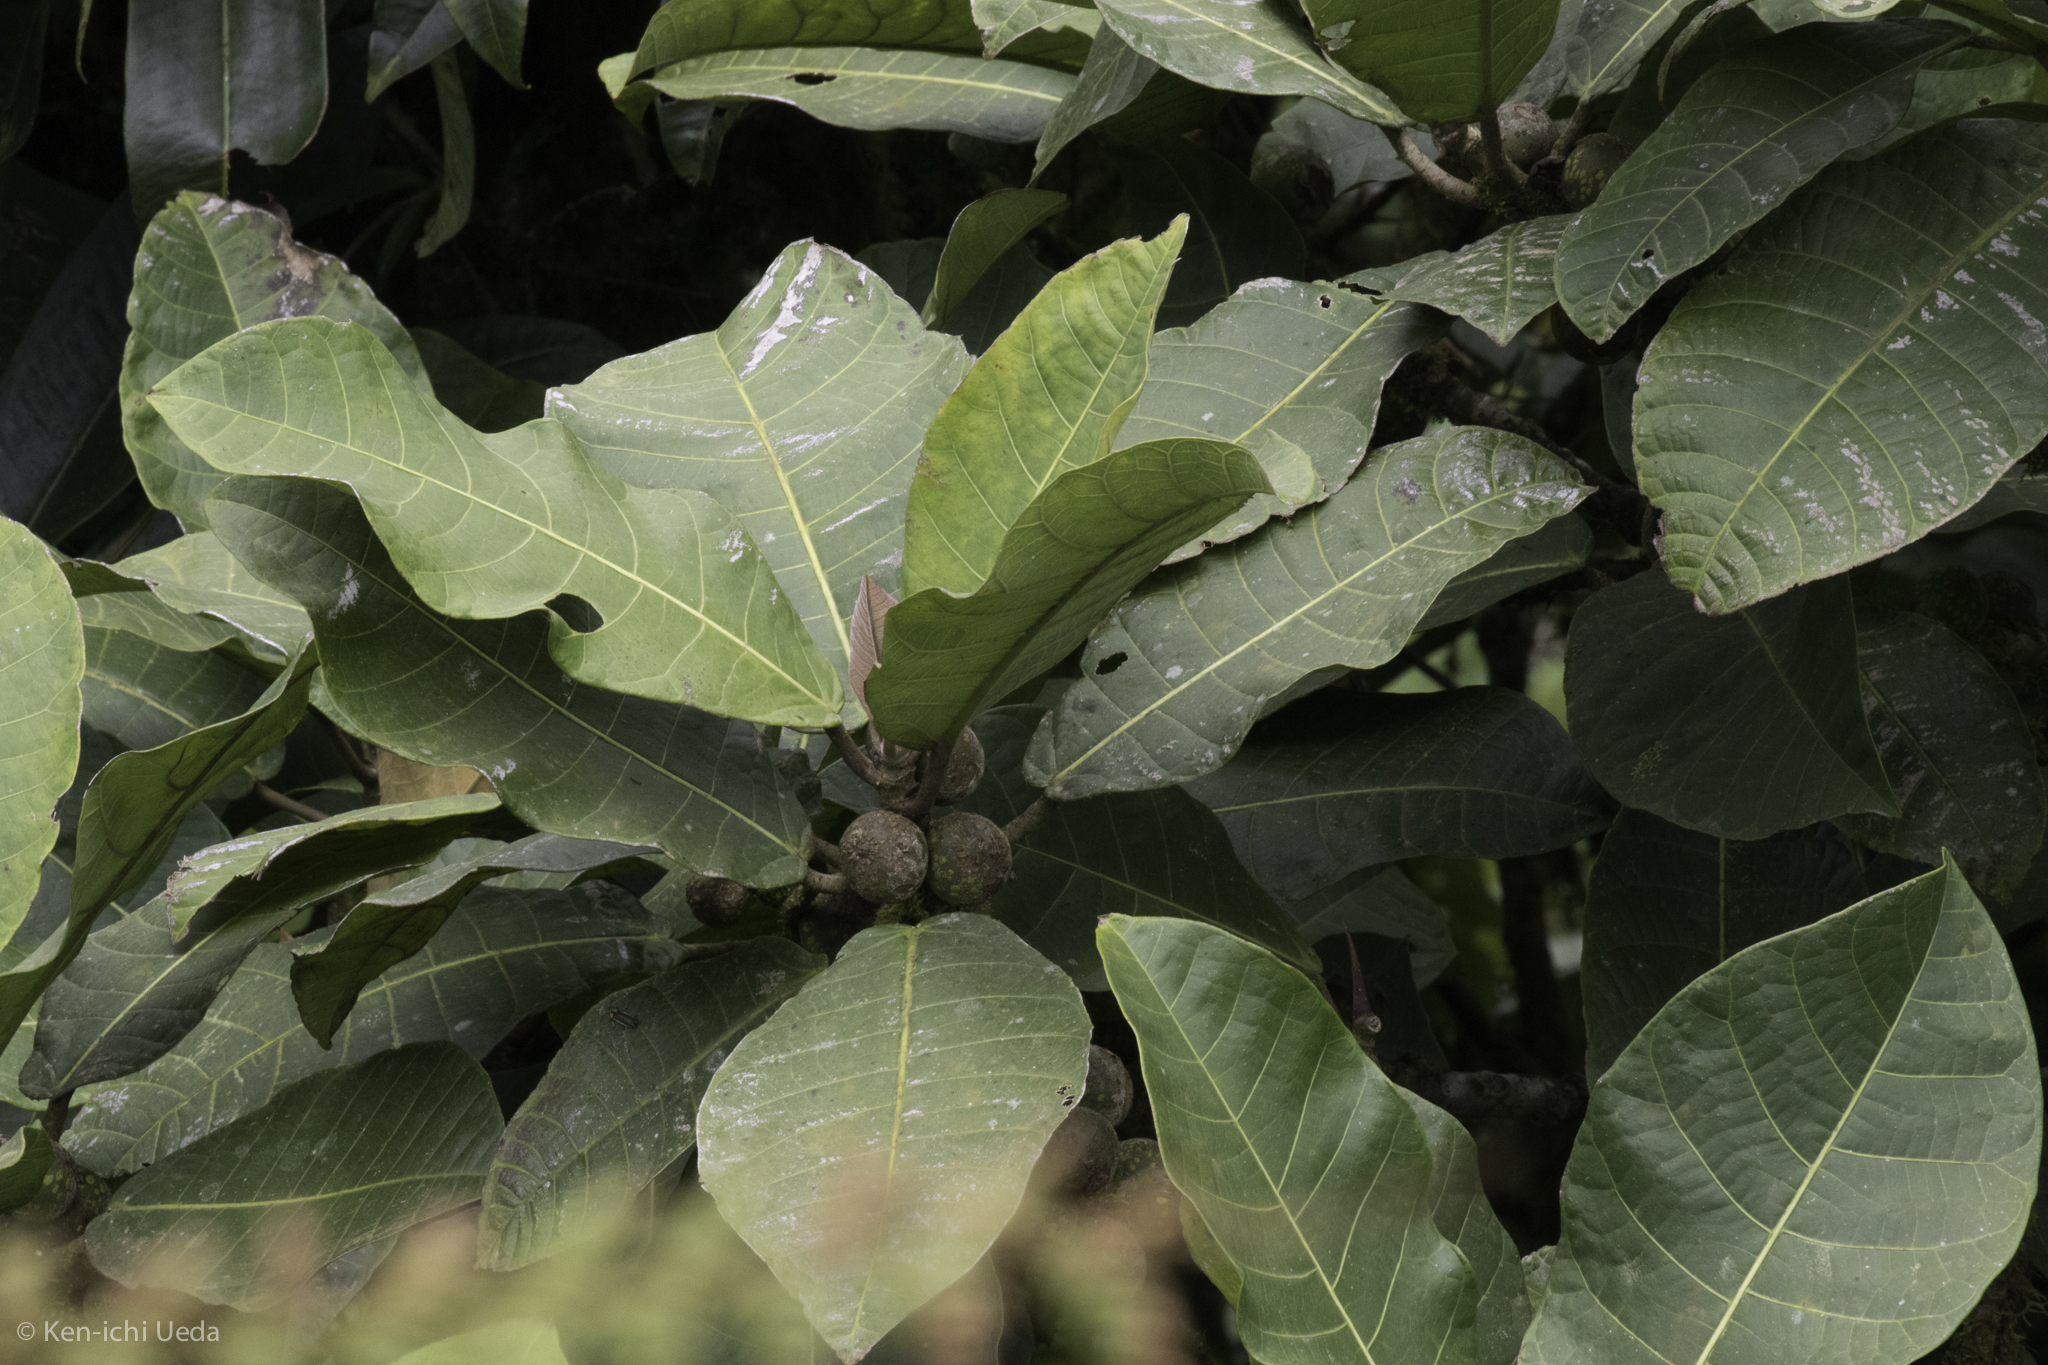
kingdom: Plantae
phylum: Tracheophyta
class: Magnoliopsida
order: Rosales
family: Moraceae
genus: Ficus
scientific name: Ficus macbridei
